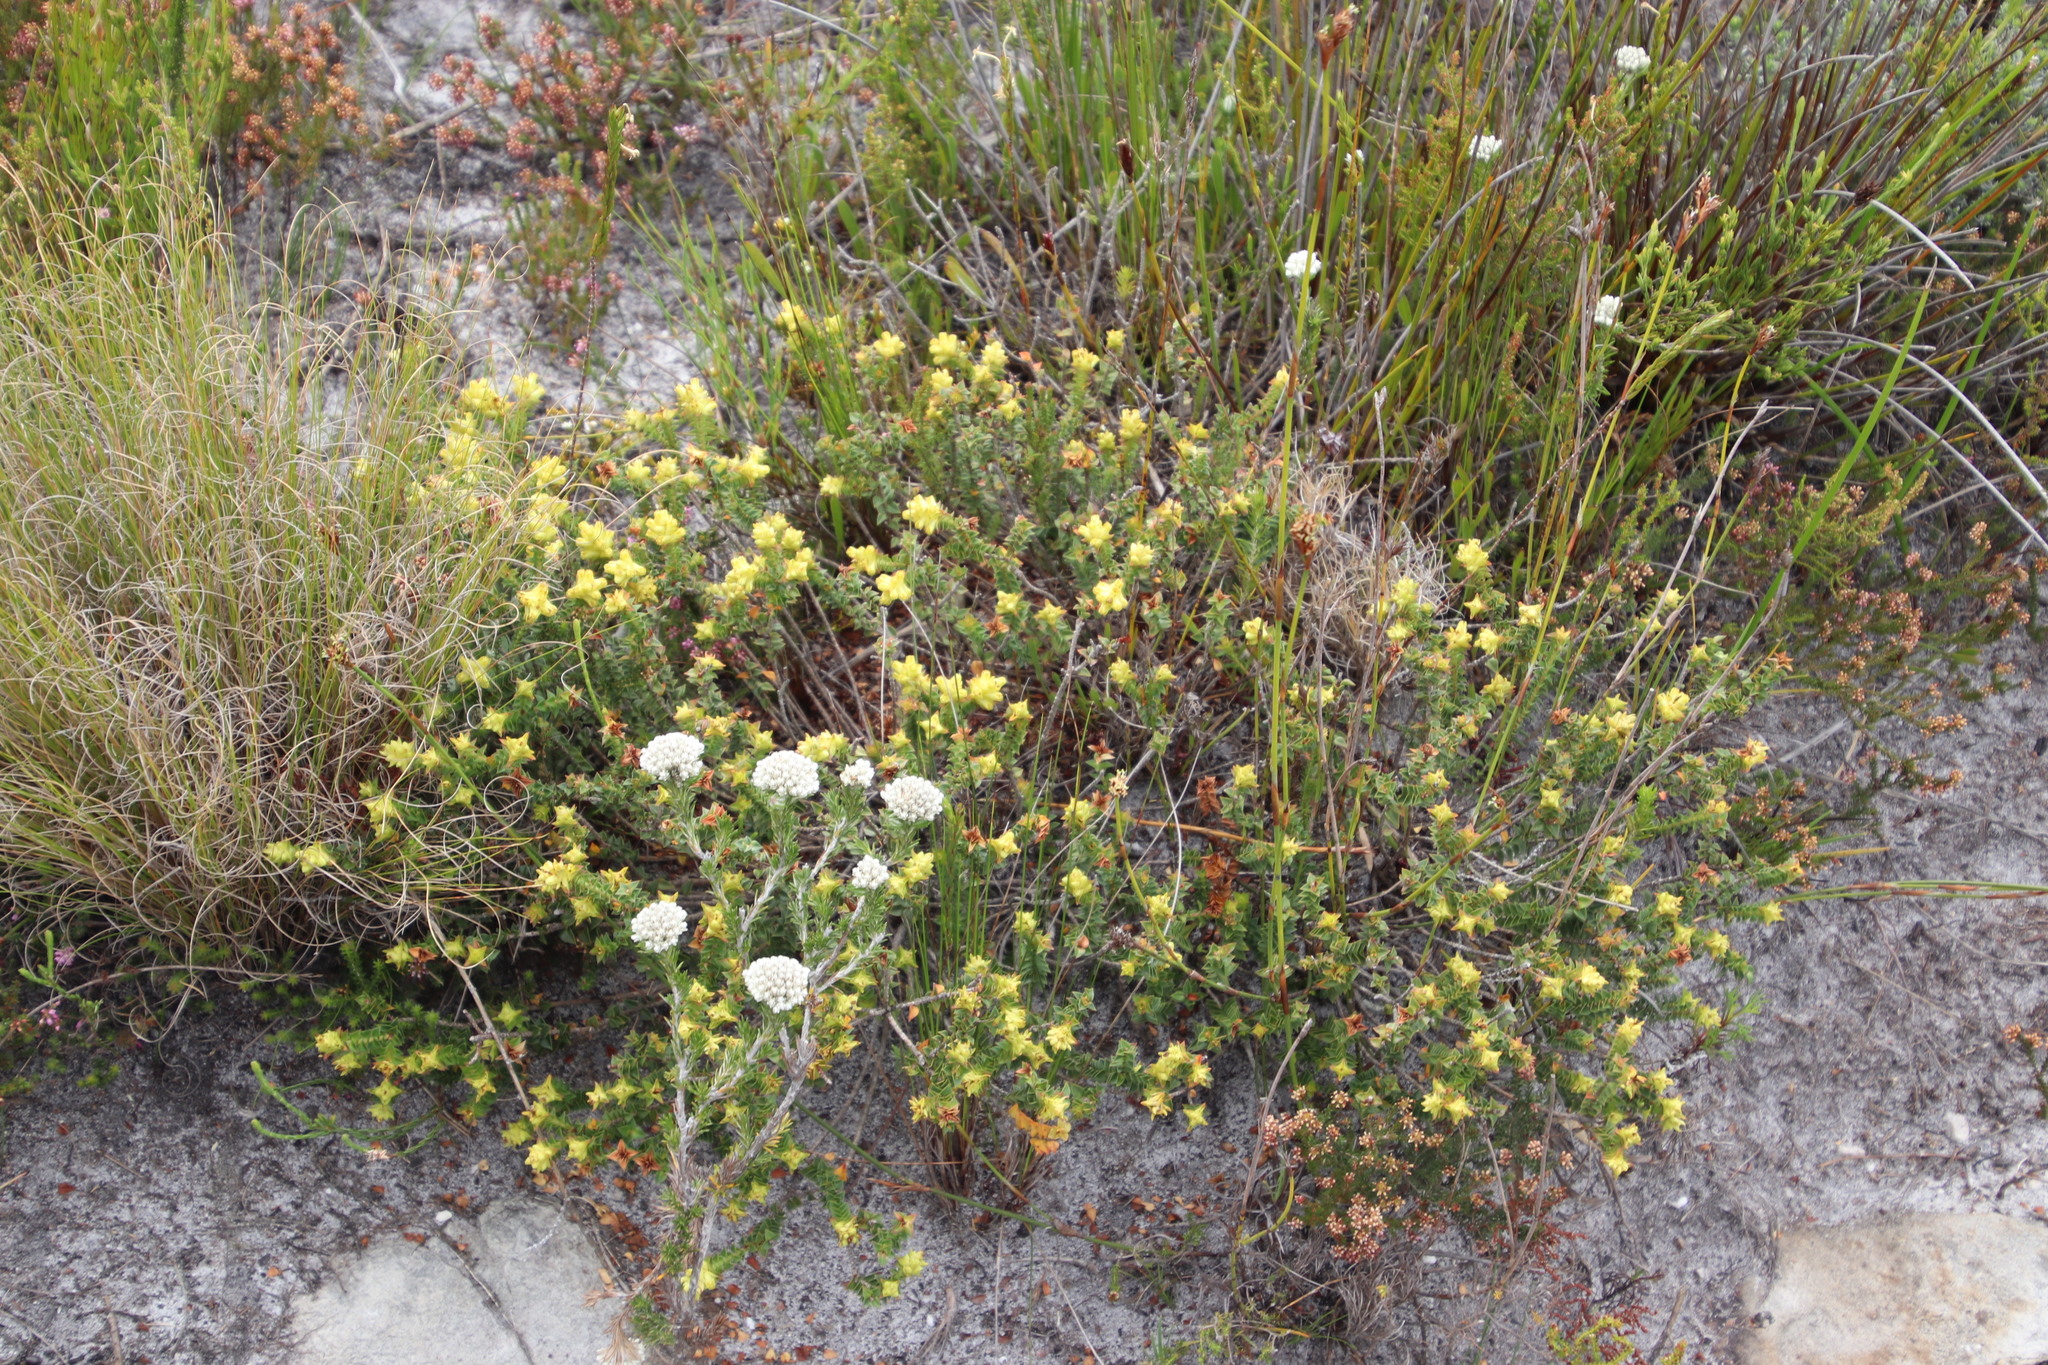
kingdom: Plantae
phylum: Tracheophyta
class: Magnoliopsida
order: Myrtales
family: Penaeaceae
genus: Penaea
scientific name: Penaea mucronata
